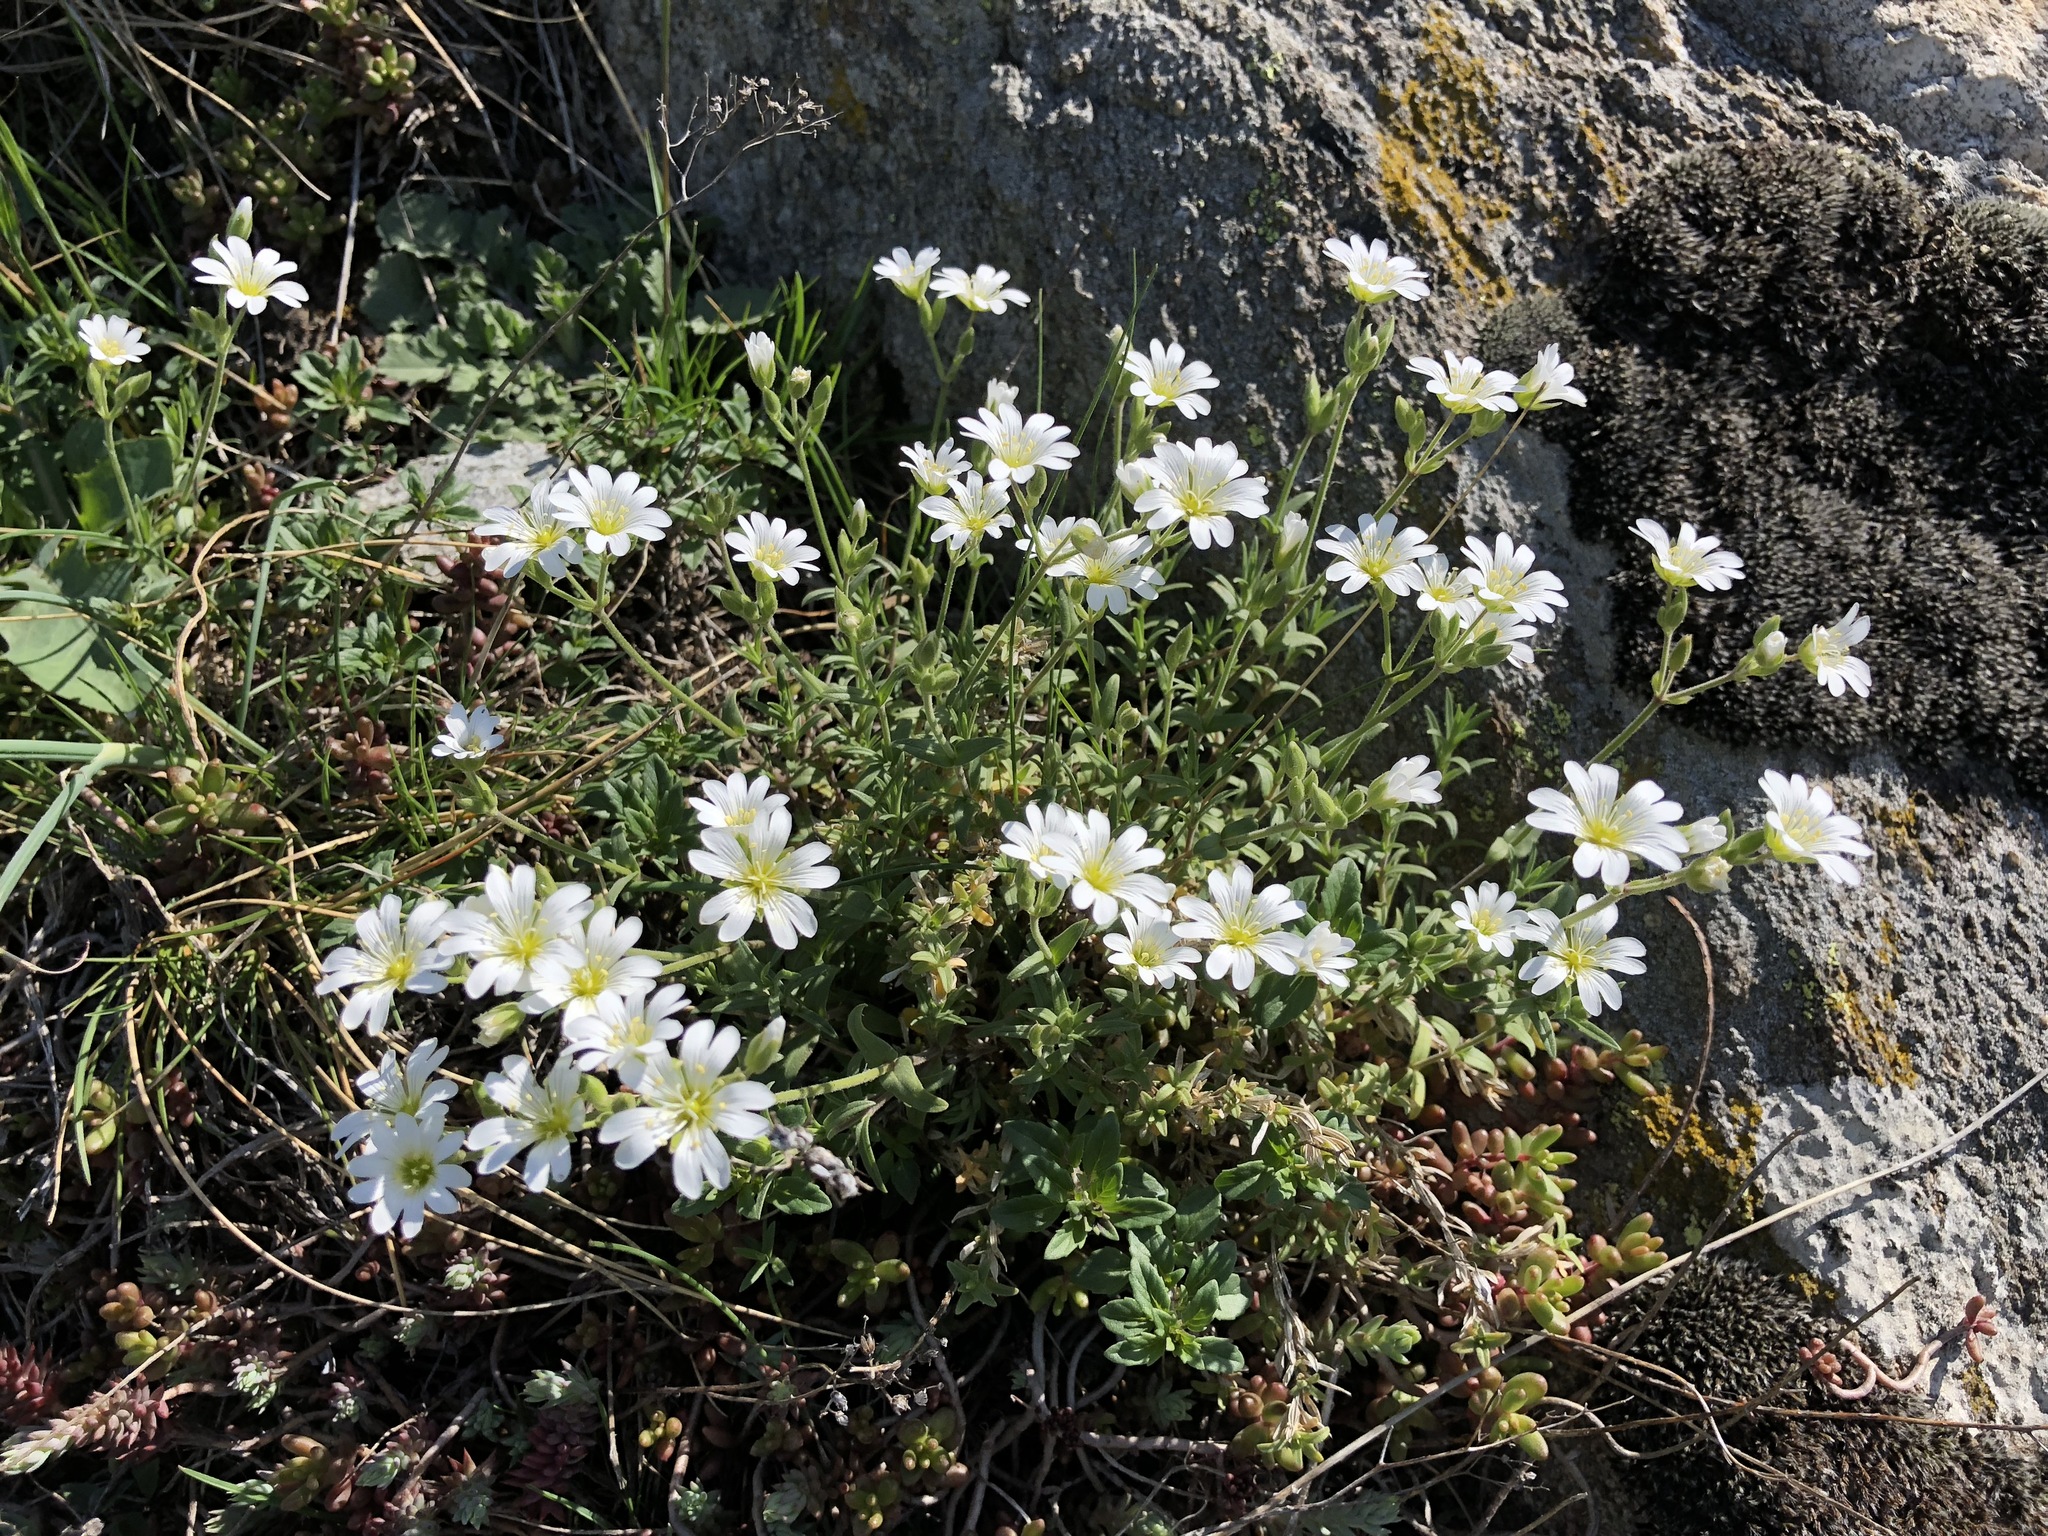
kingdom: Plantae
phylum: Tracheophyta
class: Magnoliopsida
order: Caryophyllales
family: Caryophyllaceae
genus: Cerastium
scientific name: Cerastium arvense
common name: Field mouse-ear
